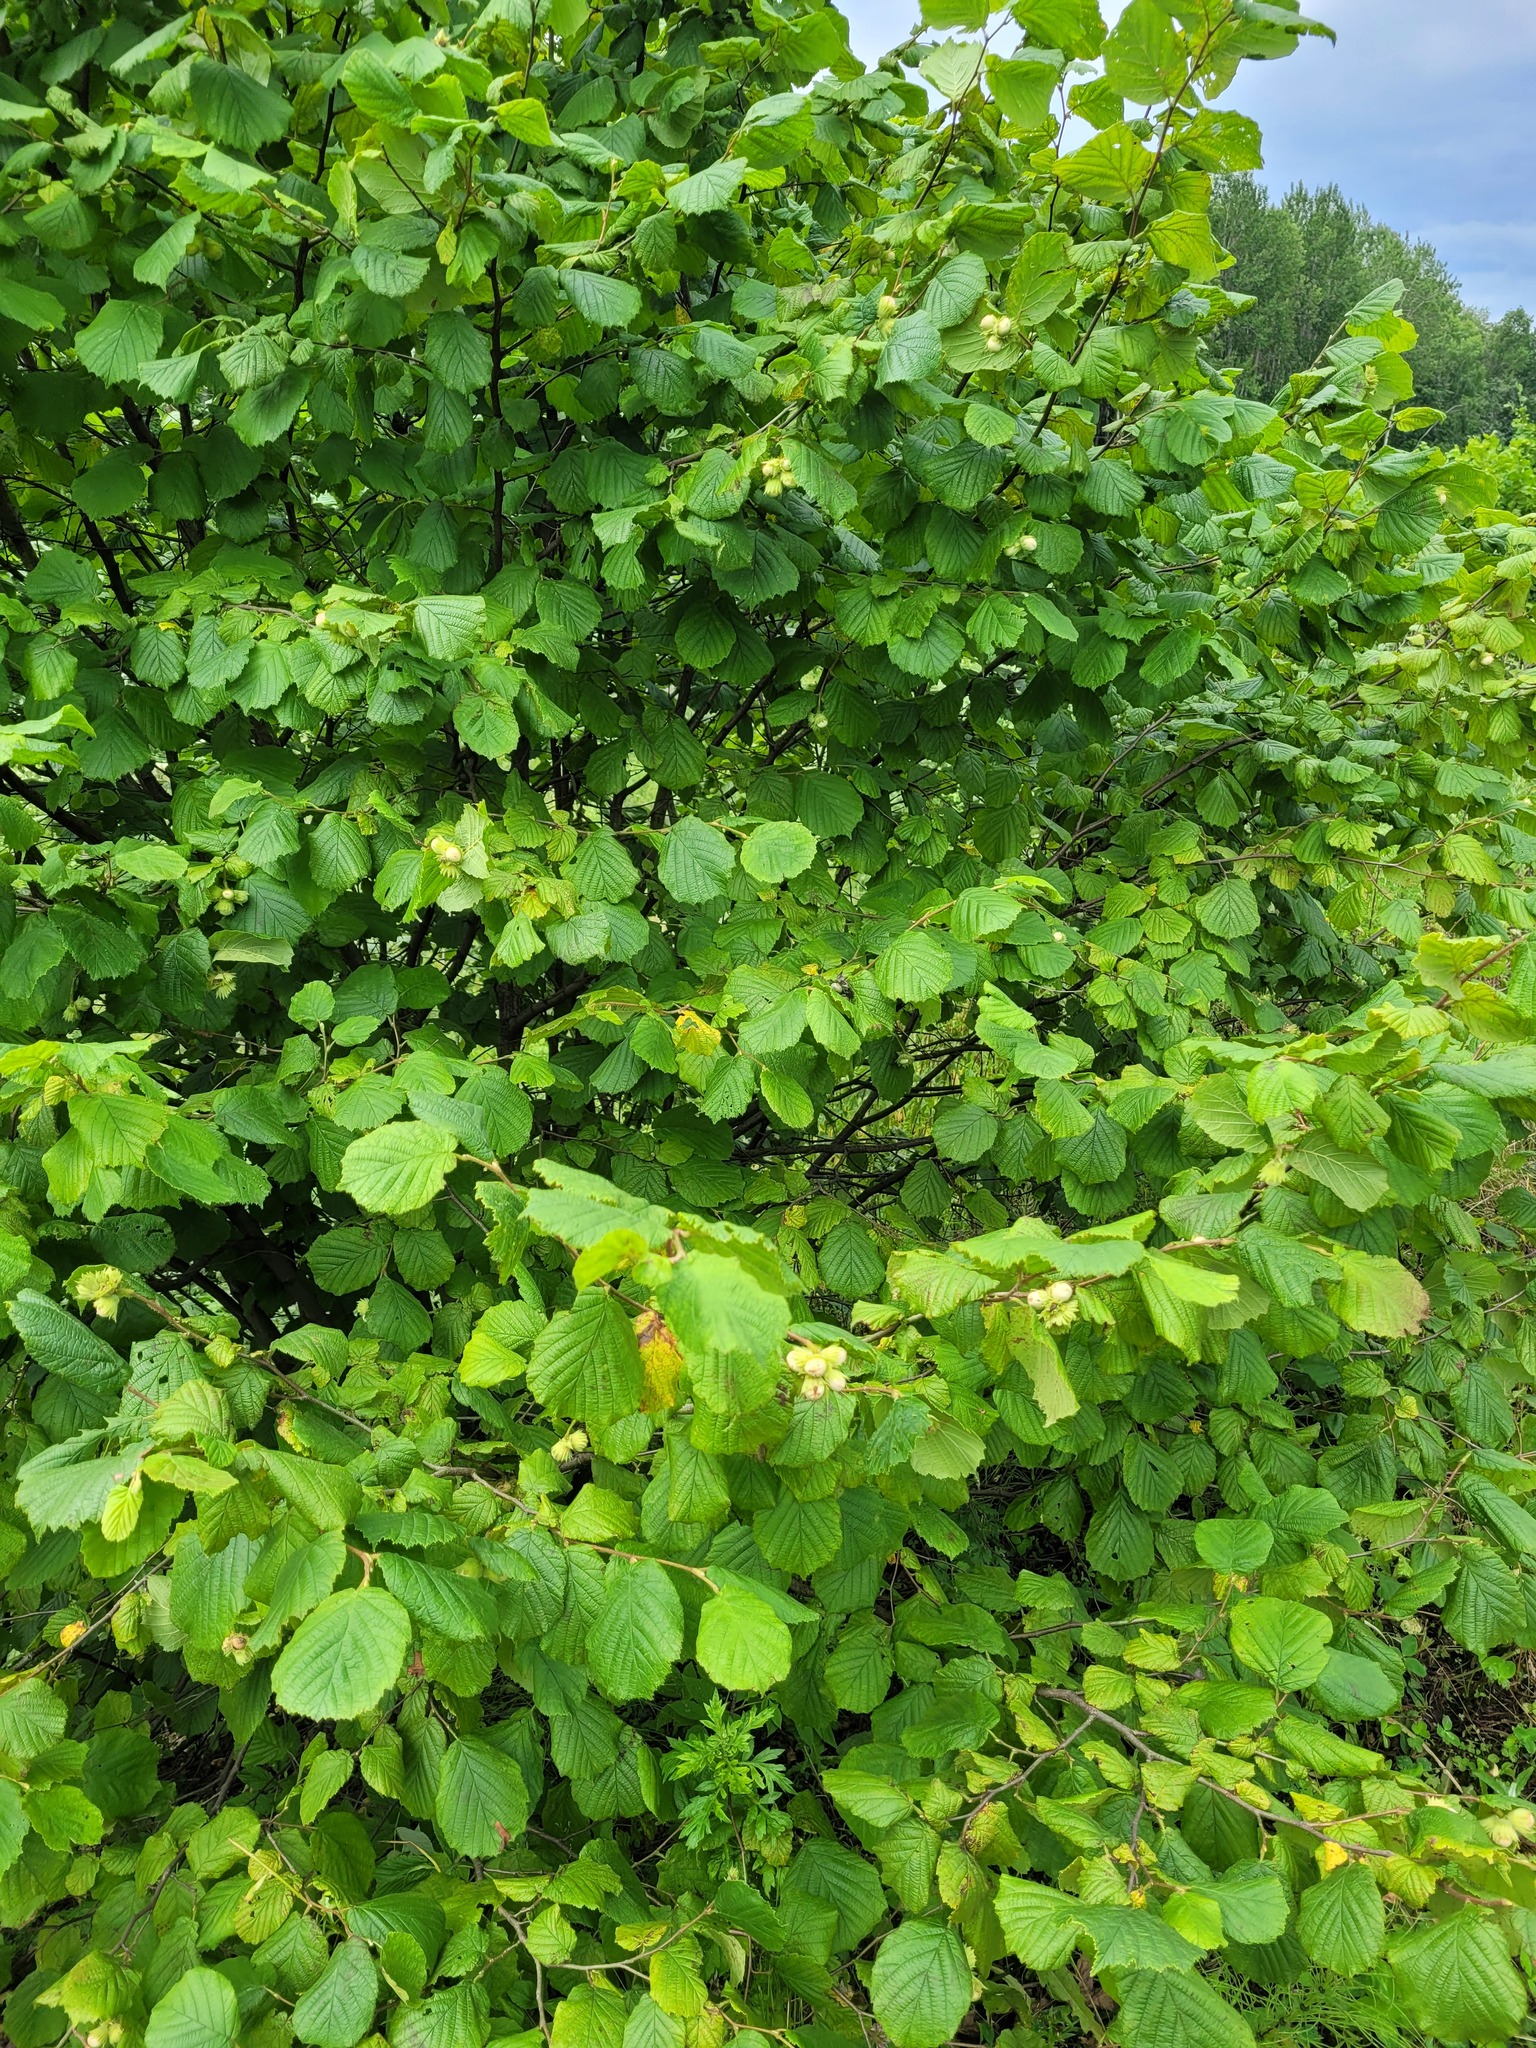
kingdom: Plantae
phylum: Tracheophyta
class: Magnoliopsida
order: Fagales
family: Betulaceae
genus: Corylus
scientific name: Corylus avellana
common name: European hazel
